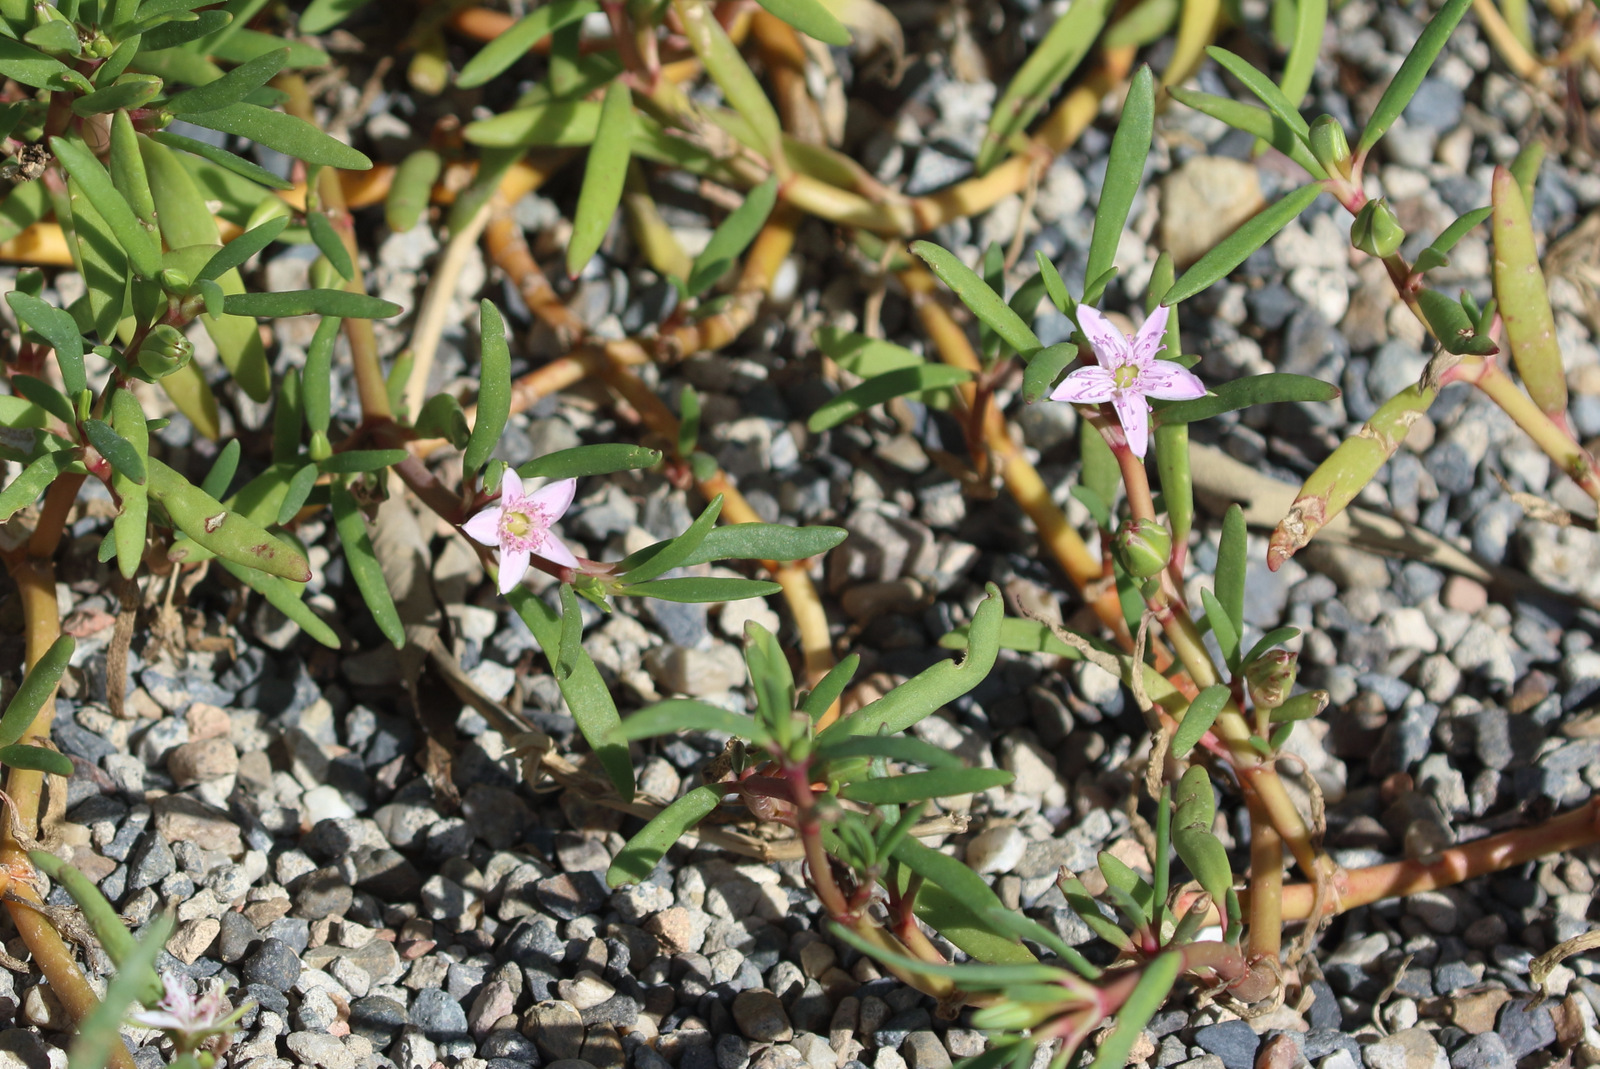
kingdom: Plantae
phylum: Tracheophyta
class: Magnoliopsida
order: Caryophyllales
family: Aizoaceae
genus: Sesuvium
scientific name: Sesuvium portulacastrum
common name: Sea-purslane
